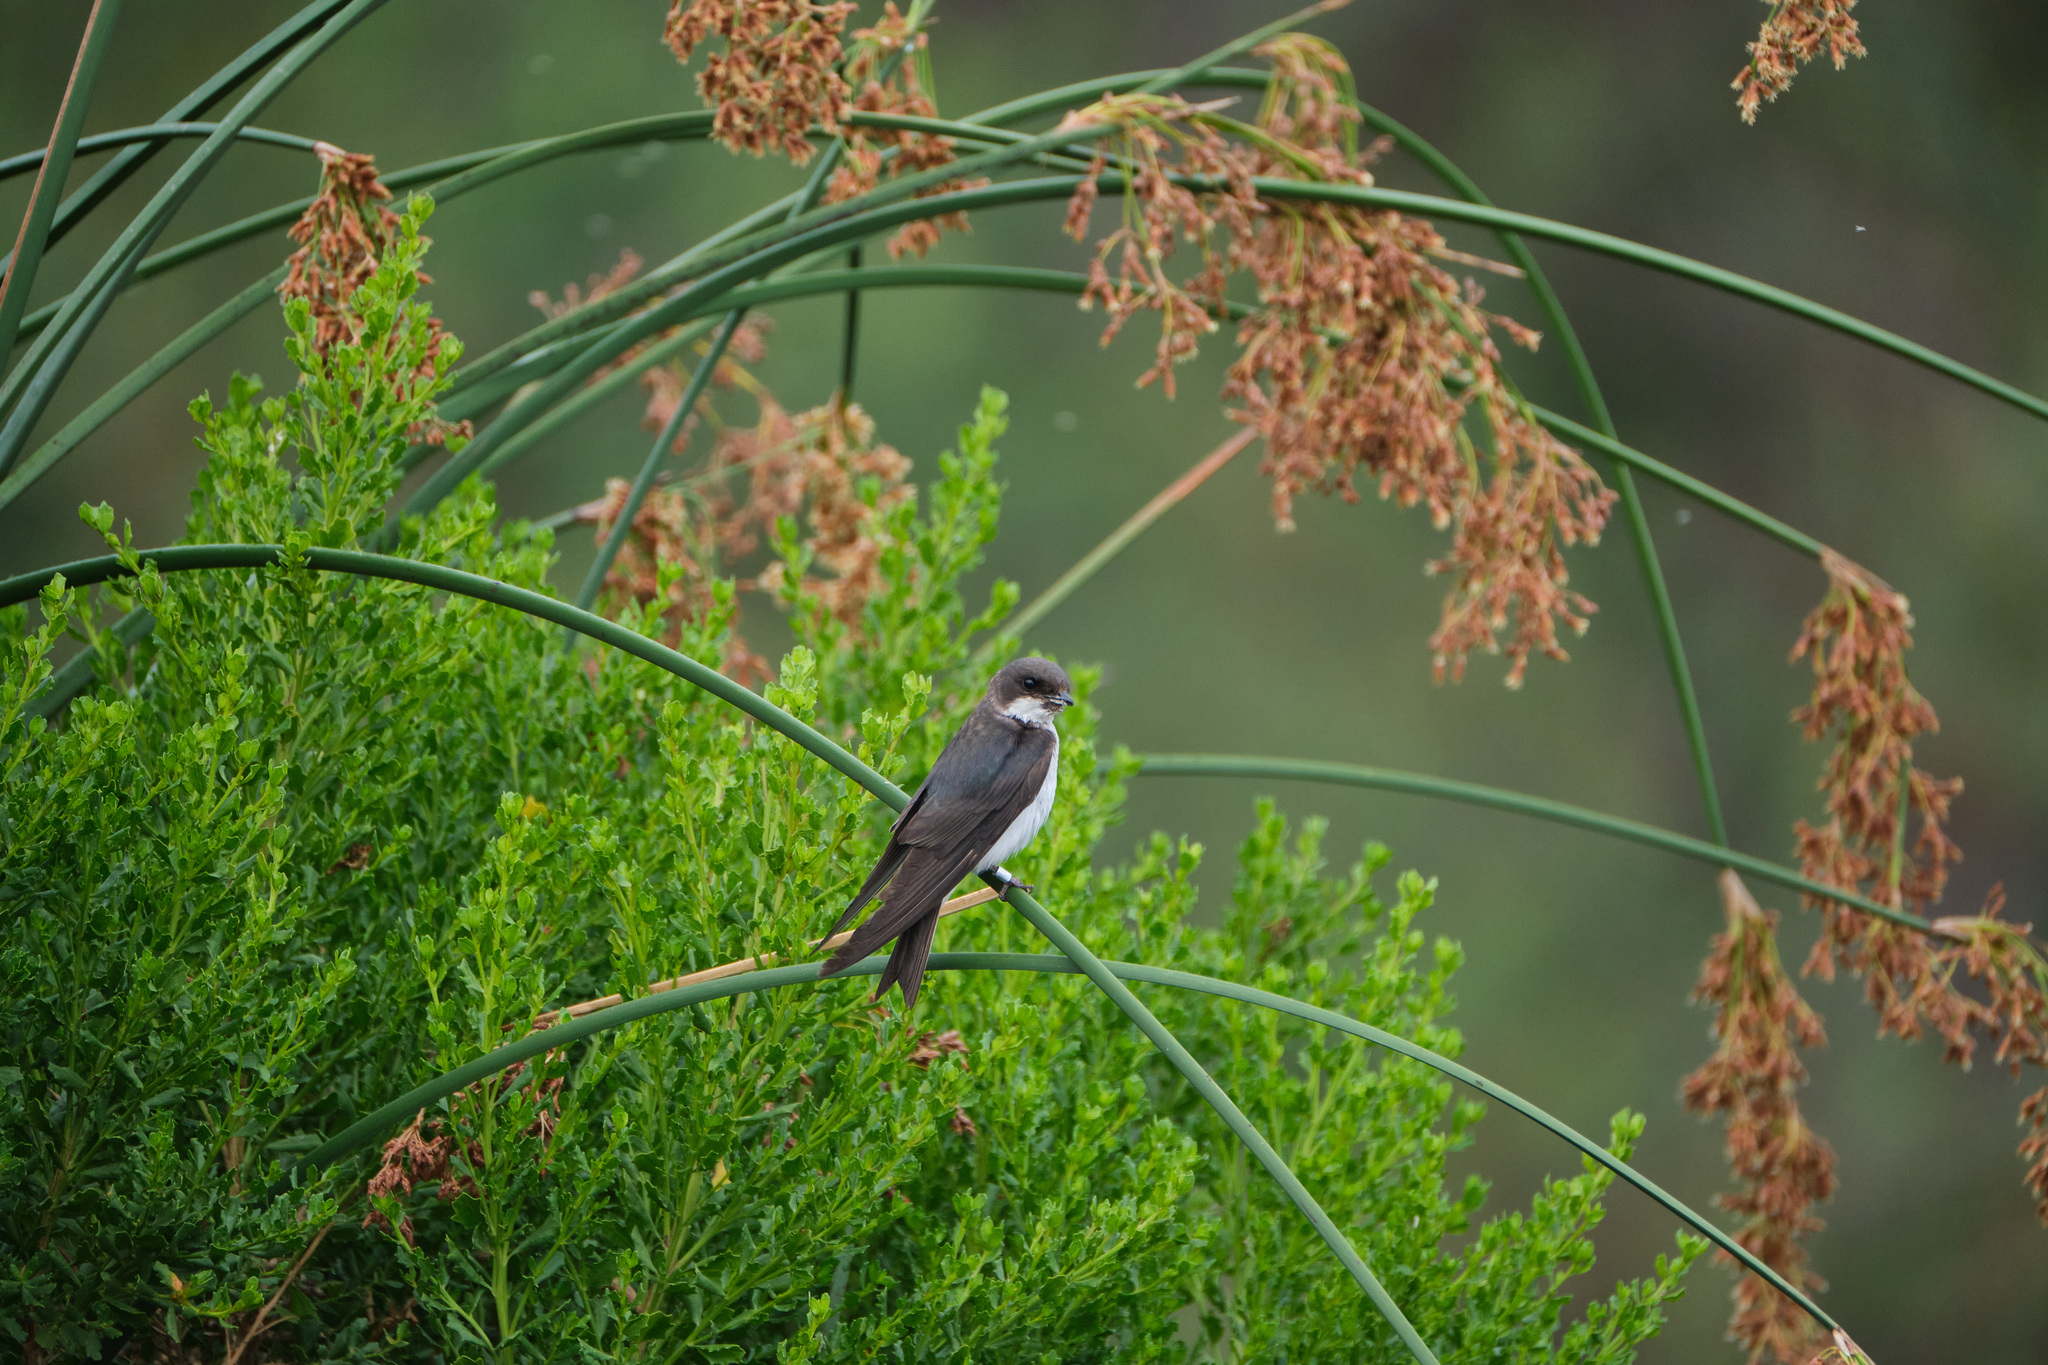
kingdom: Animalia
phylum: Chordata
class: Aves
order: Passeriformes
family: Hirundinidae
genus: Tachycineta
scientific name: Tachycineta bicolor
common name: Tree swallow
